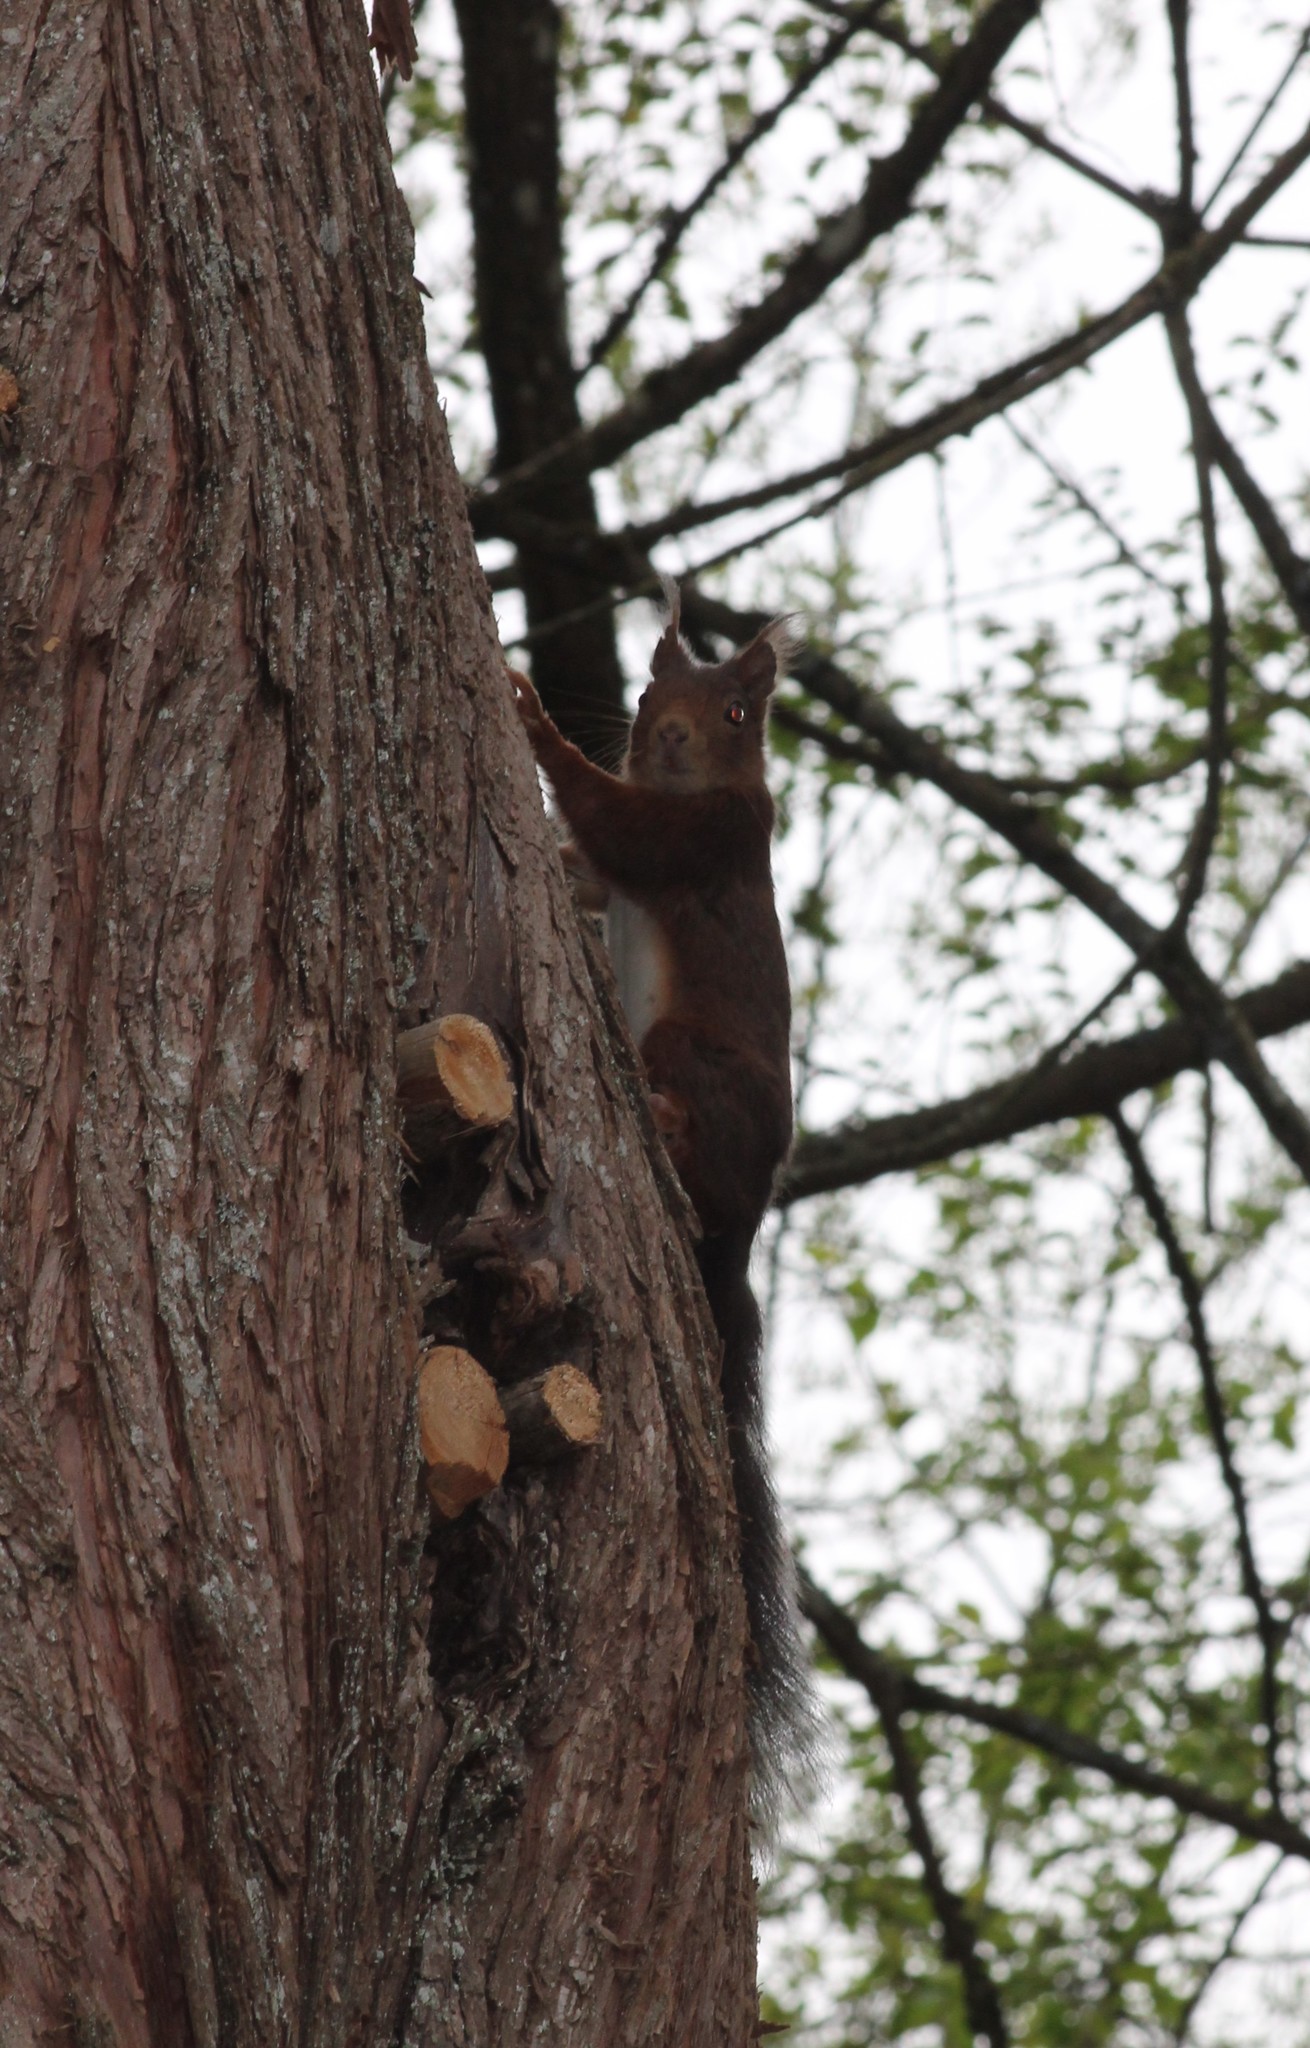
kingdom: Animalia
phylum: Chordata
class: Mammalia
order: Rodentia
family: Sciuridae
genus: Sciurus
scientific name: Sciurus vulgaris
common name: Eurasian red squirrel
